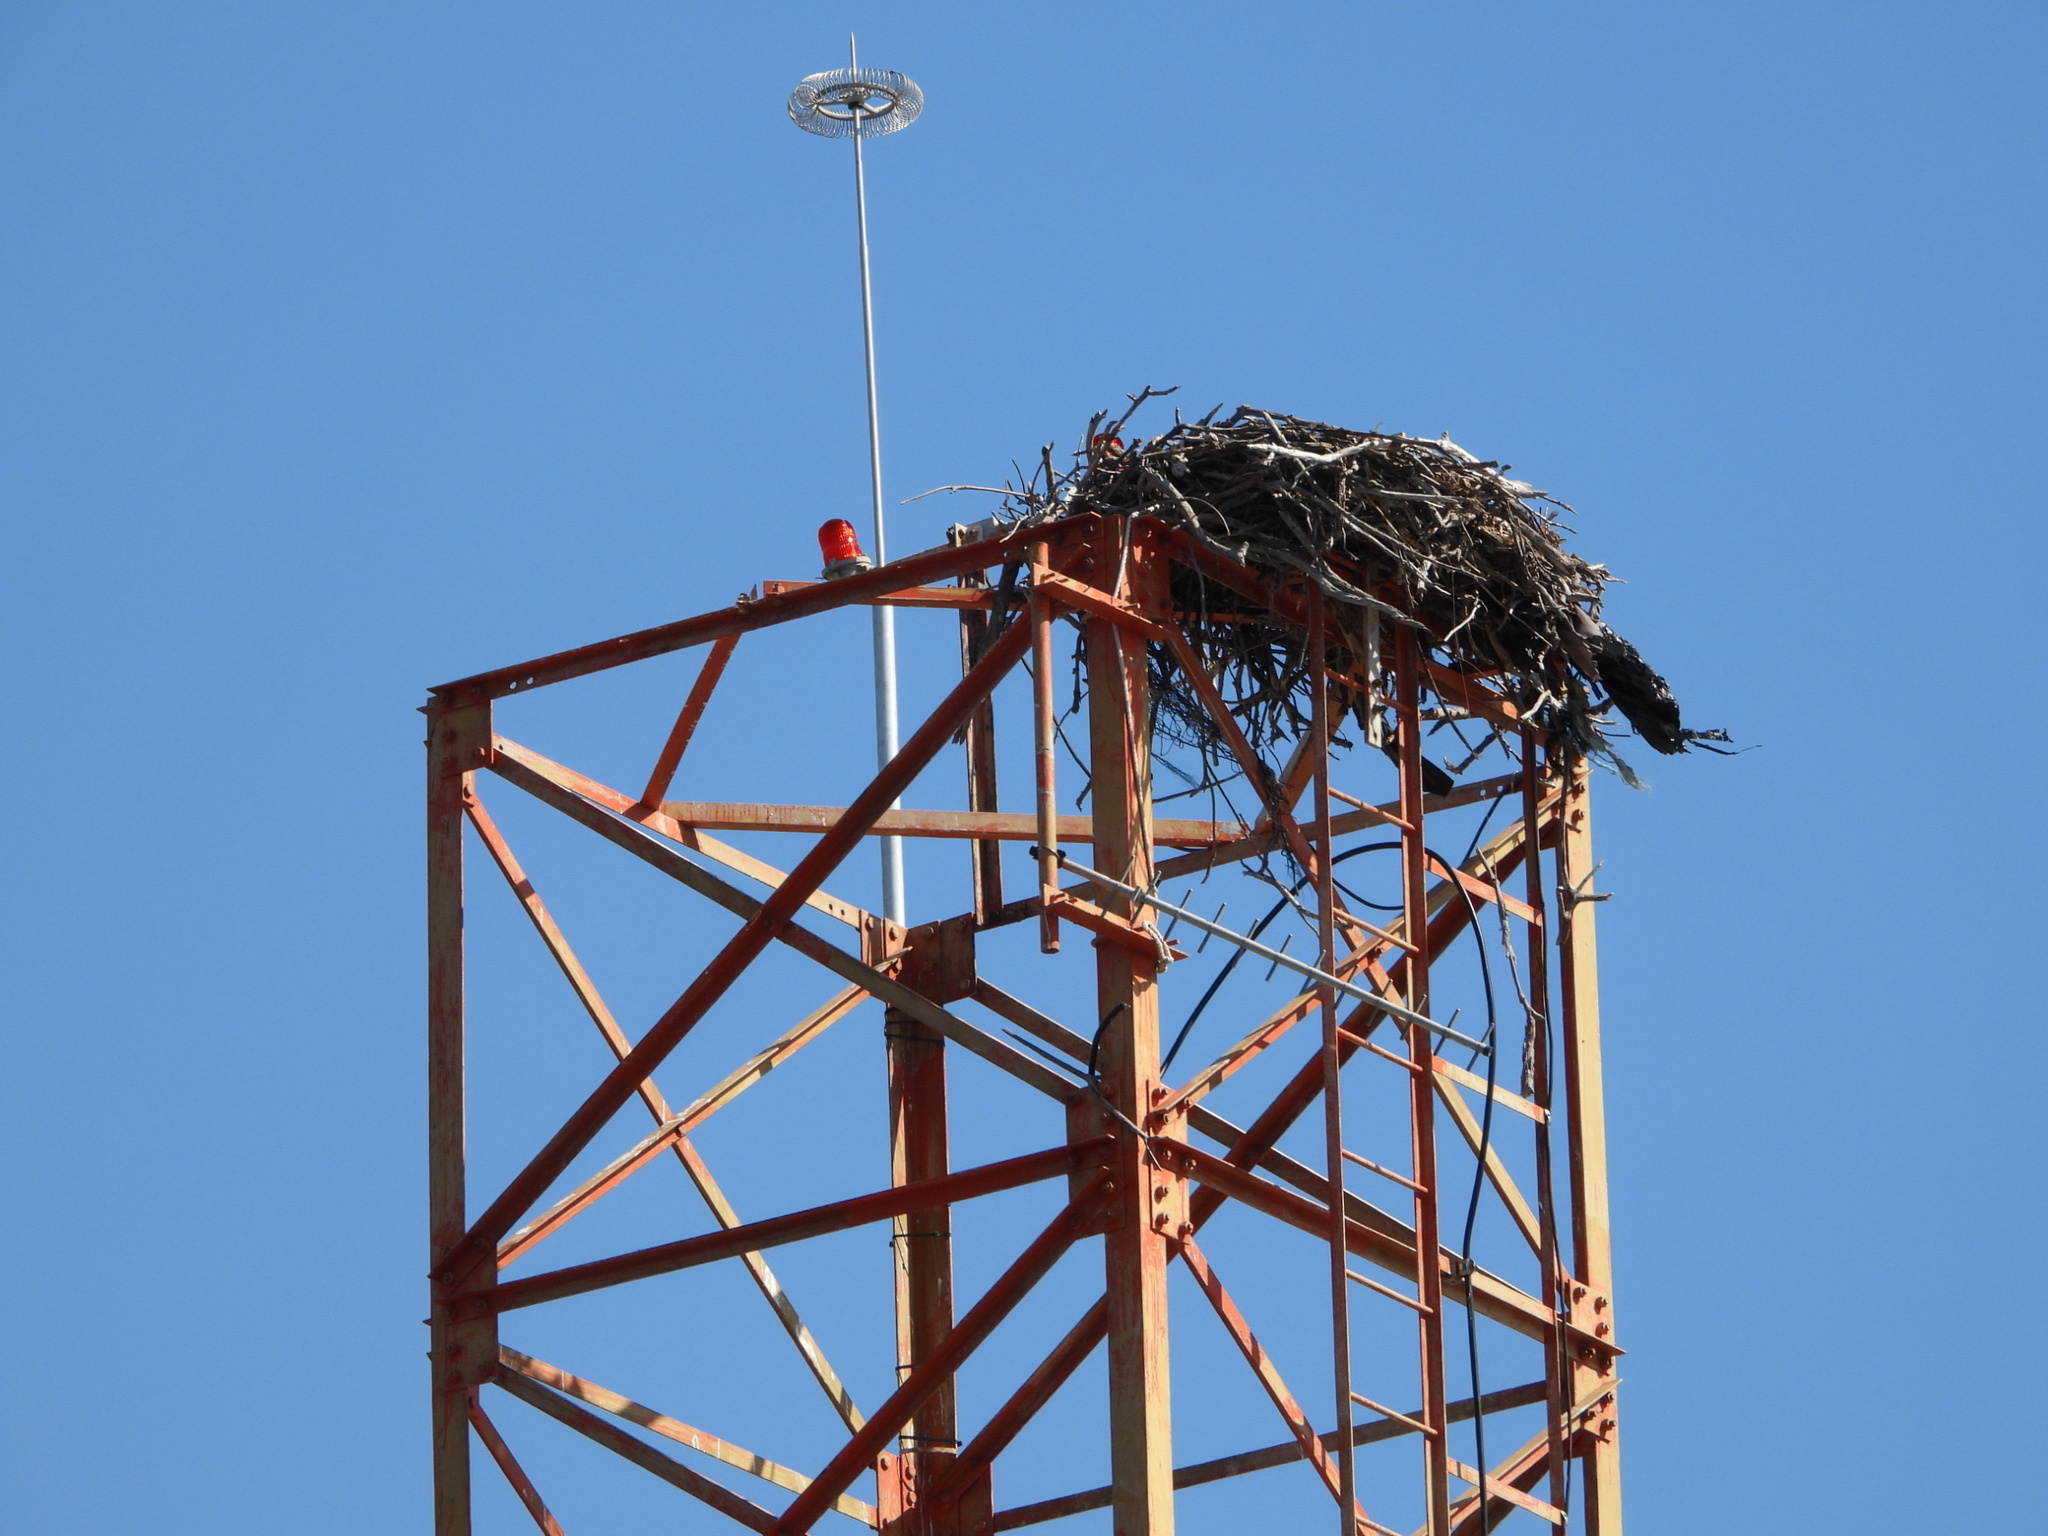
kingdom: Animalia
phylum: Chordata
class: Aves
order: Accipitriformes
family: Pandionidae
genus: Pandion
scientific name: Pandion haliaetus
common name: Osprey
